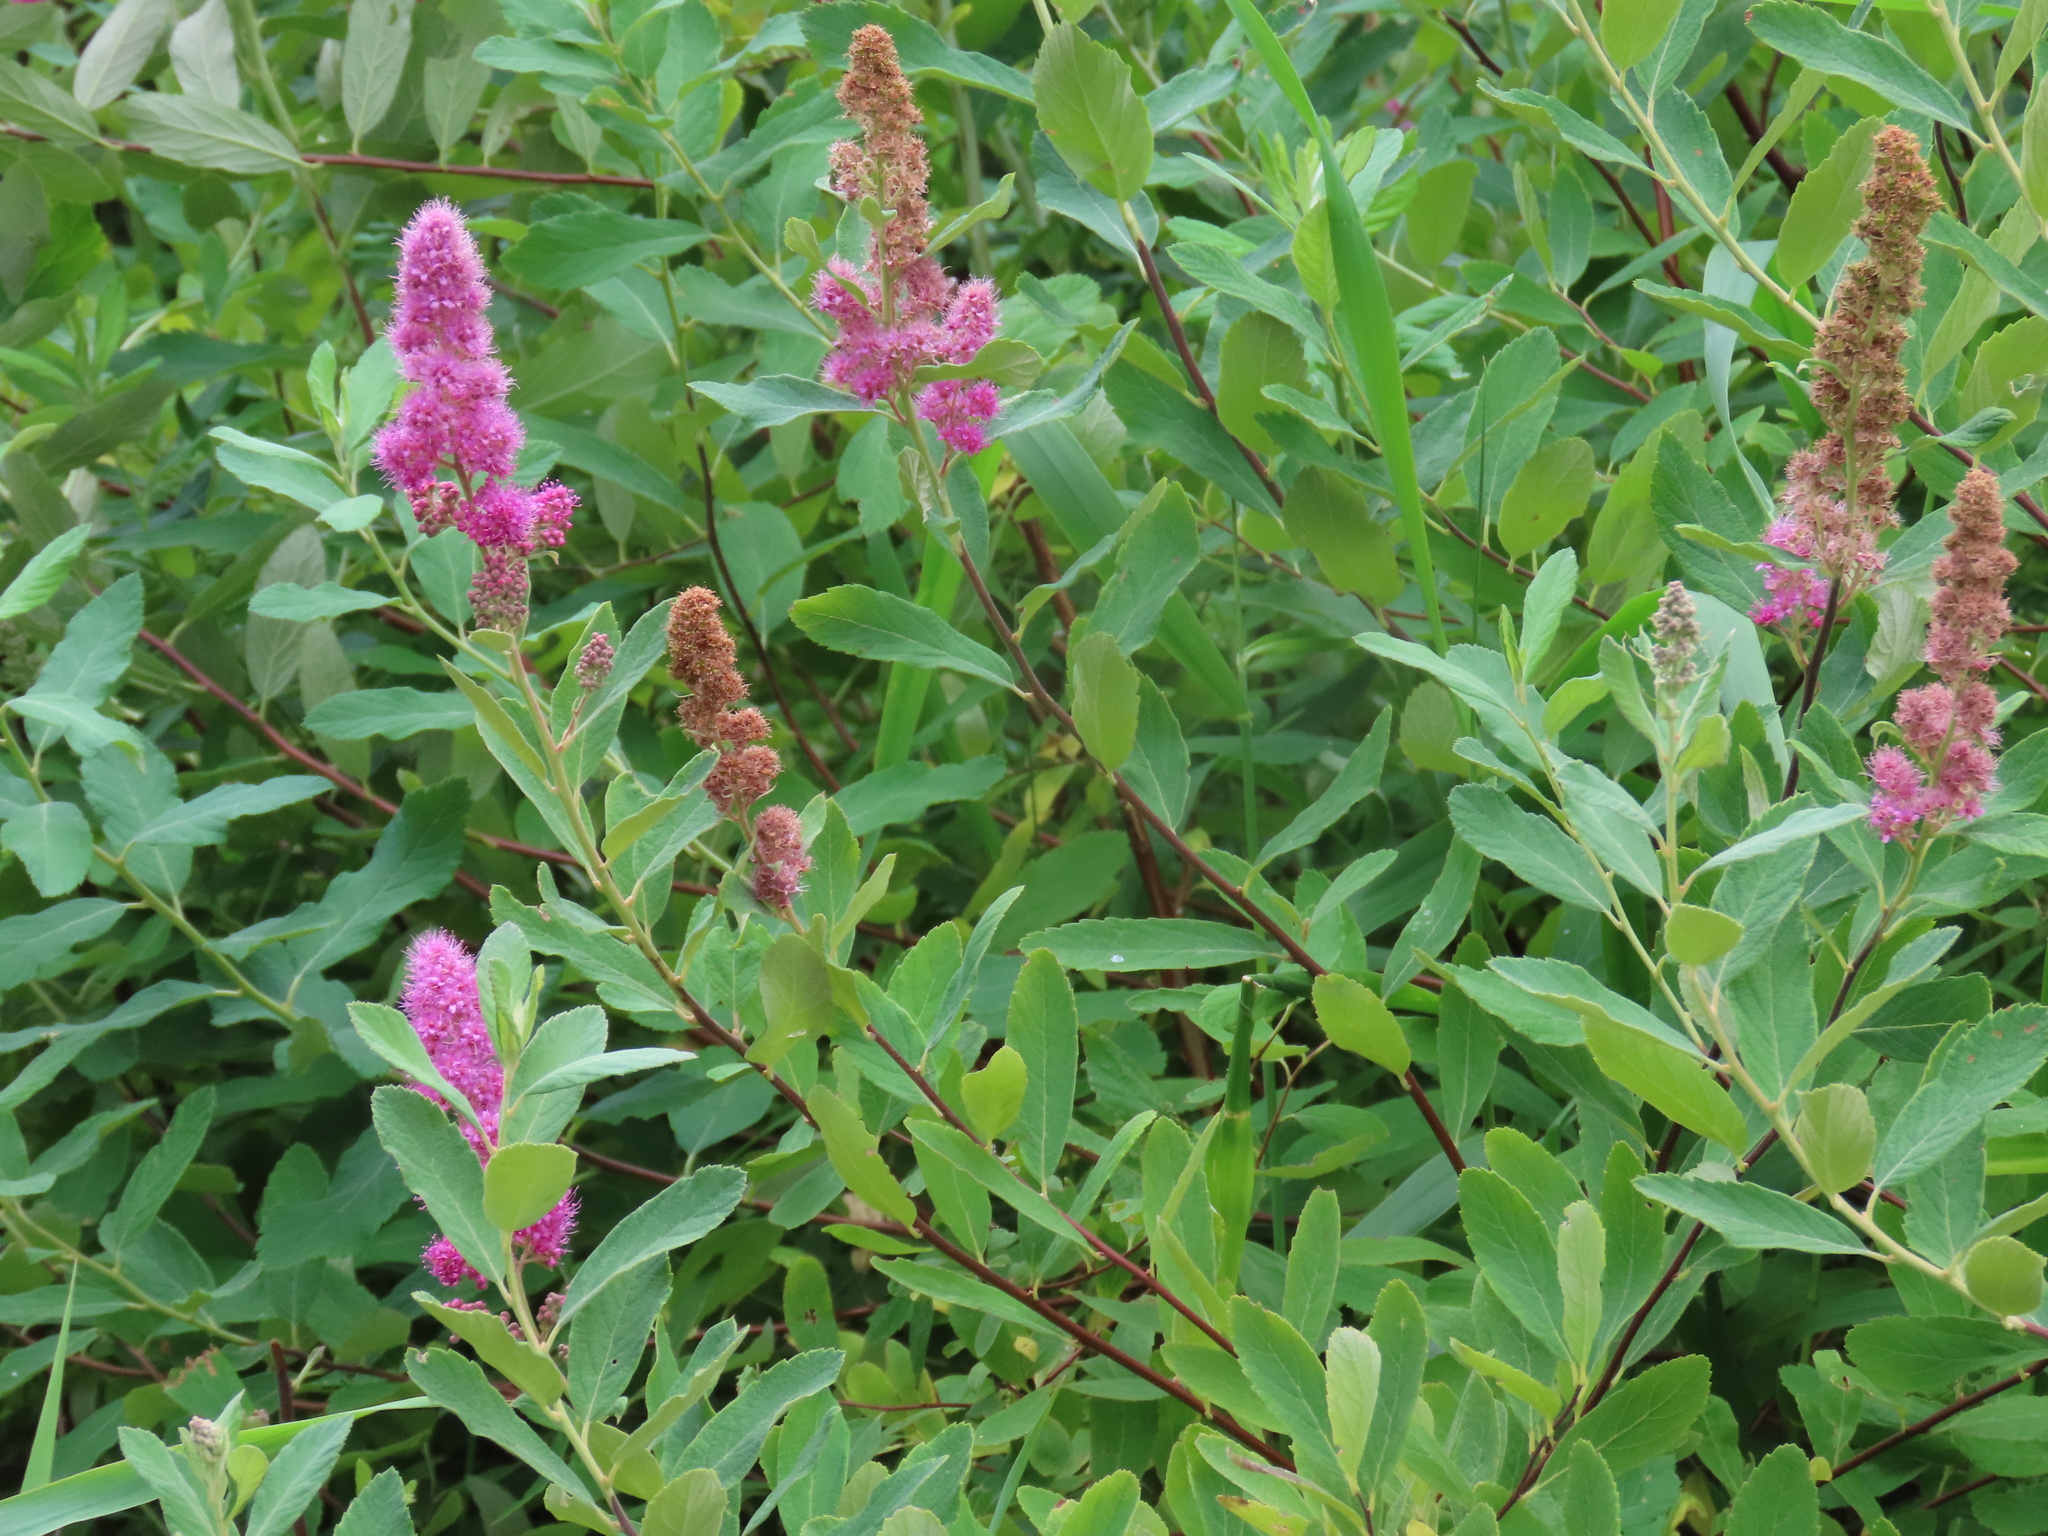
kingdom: Plantae
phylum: Tracheophyta
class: Magnoliopsida
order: Rosales
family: Rosaceae
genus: Spiraea
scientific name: Spiraea douglasii
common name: Steeplebush
